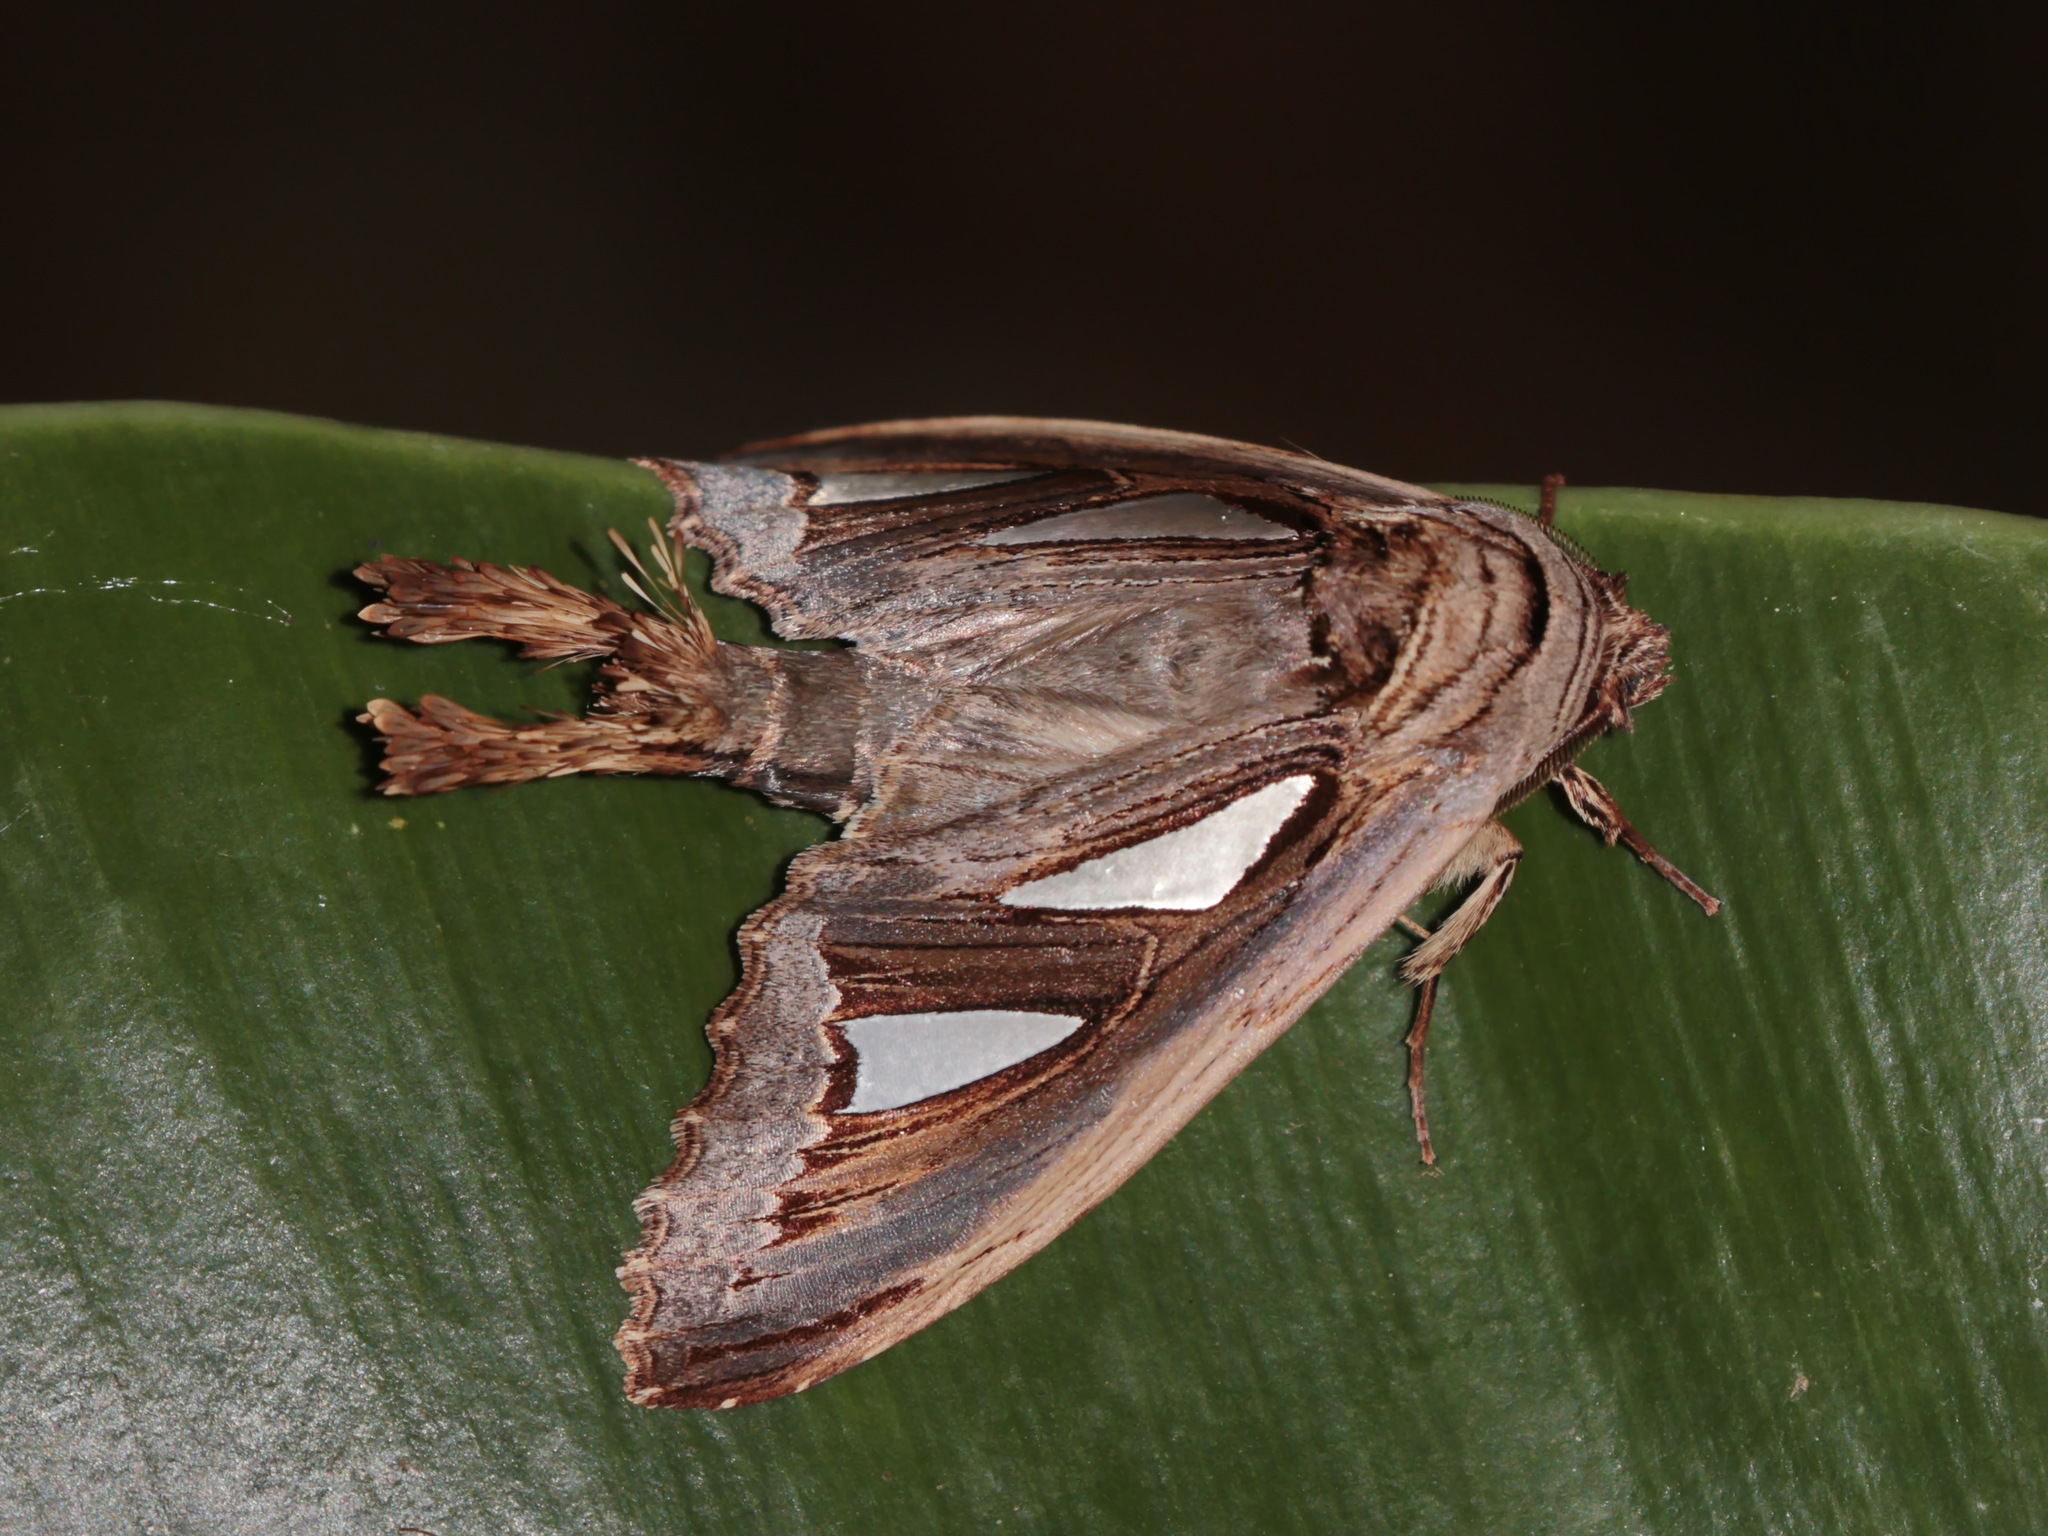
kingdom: Animalia
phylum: Arthropoda
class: Insecta
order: Lepidoptera
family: Notodontidae
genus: Tarsolepis
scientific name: Tarsolepis remicauda
